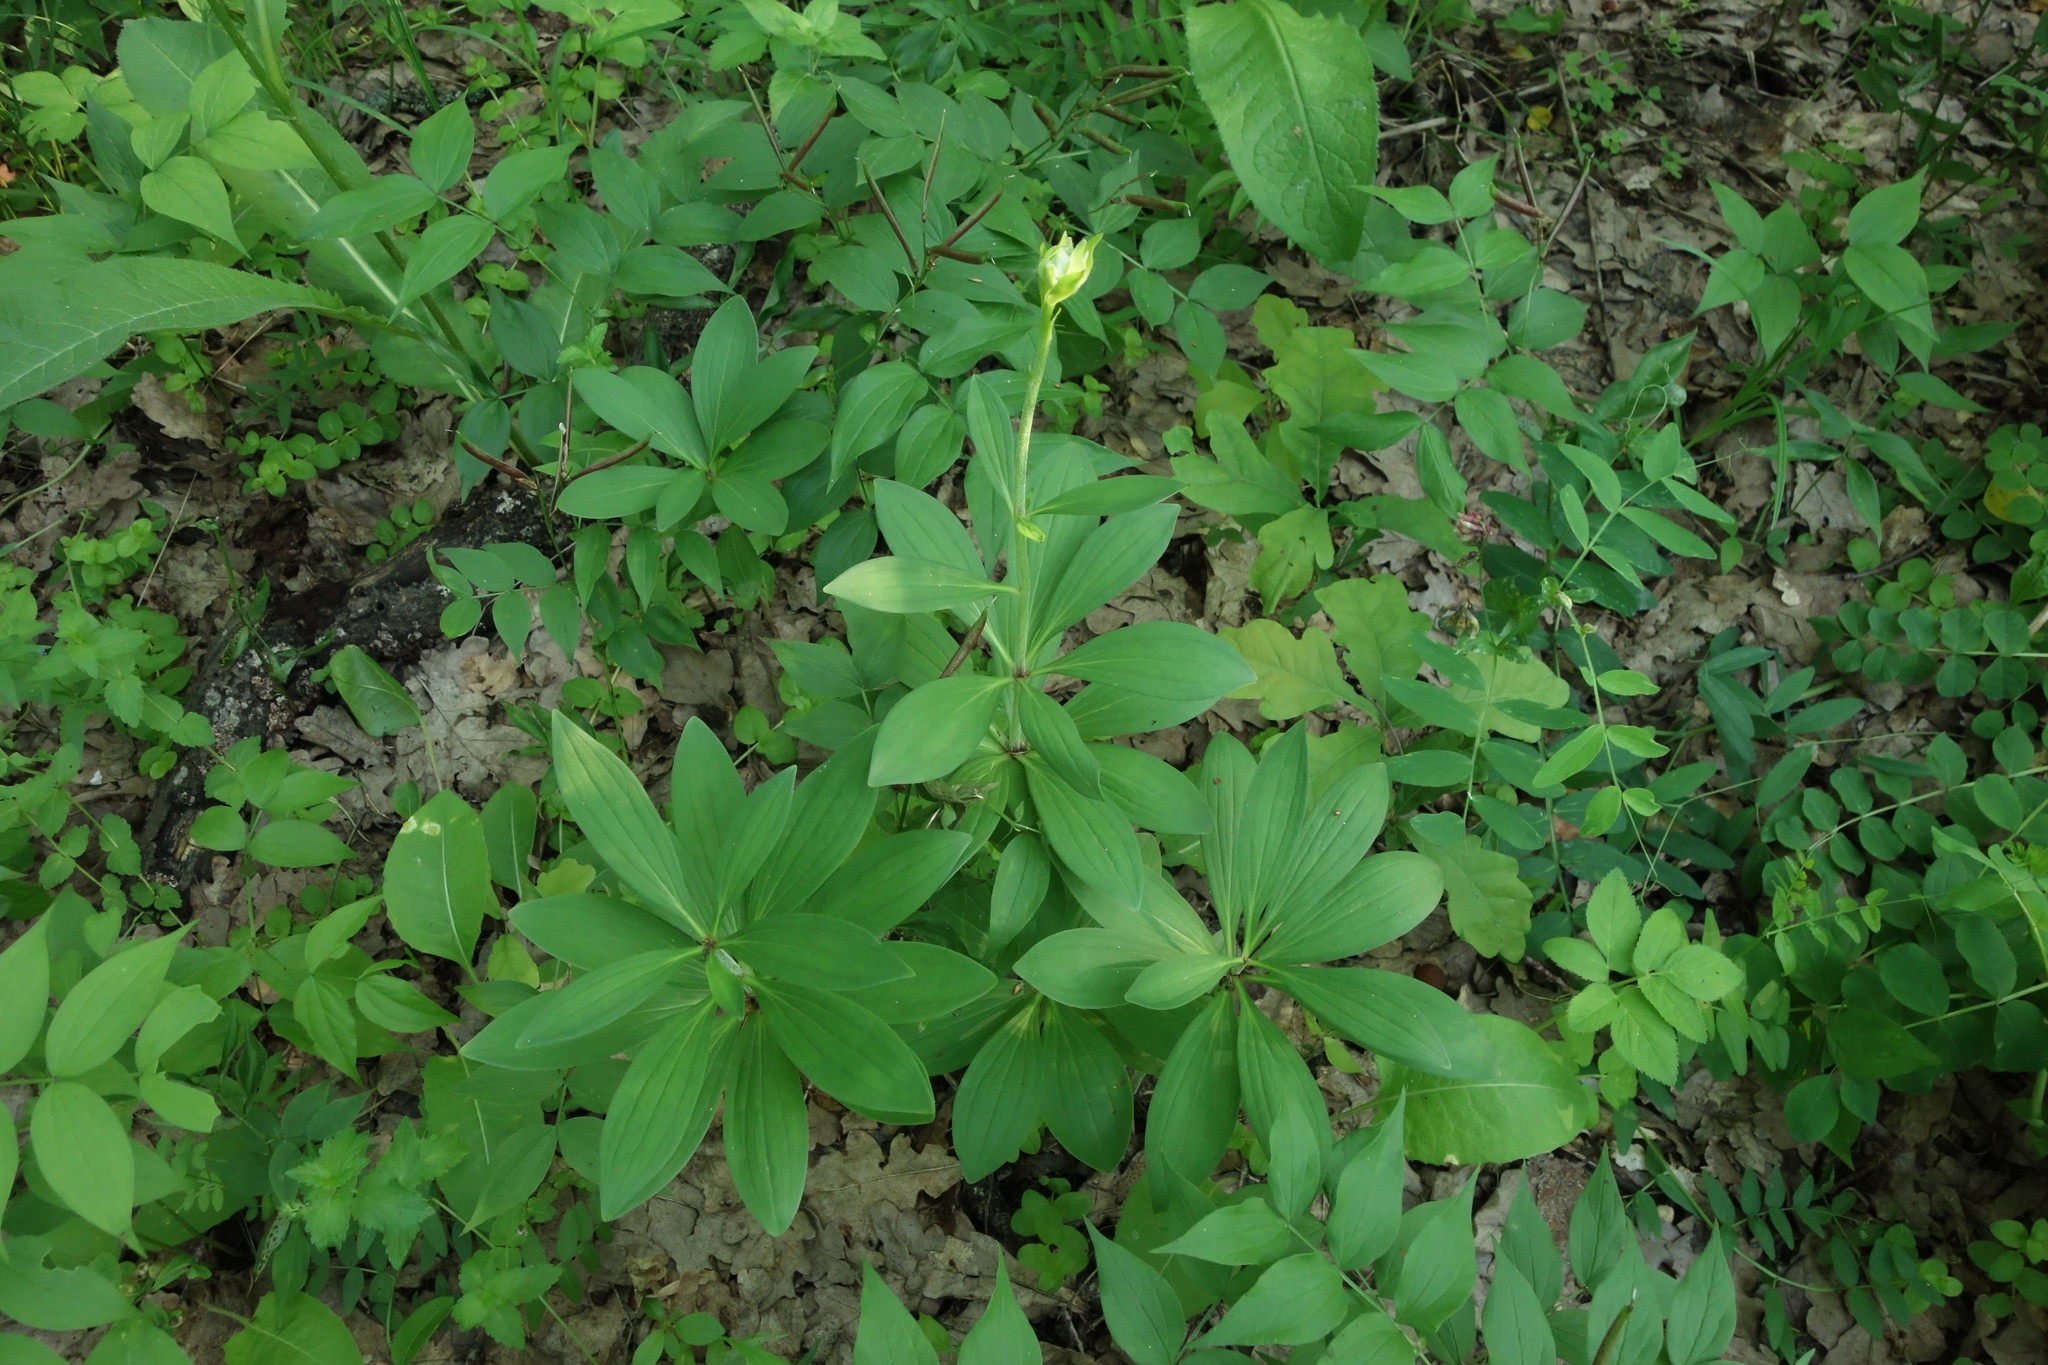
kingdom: Plantae
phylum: Tracheophyta
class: Liliopsida
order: Liliales
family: Liliaceae
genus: Lilium
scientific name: Lilium martagon
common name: Martagon lily
